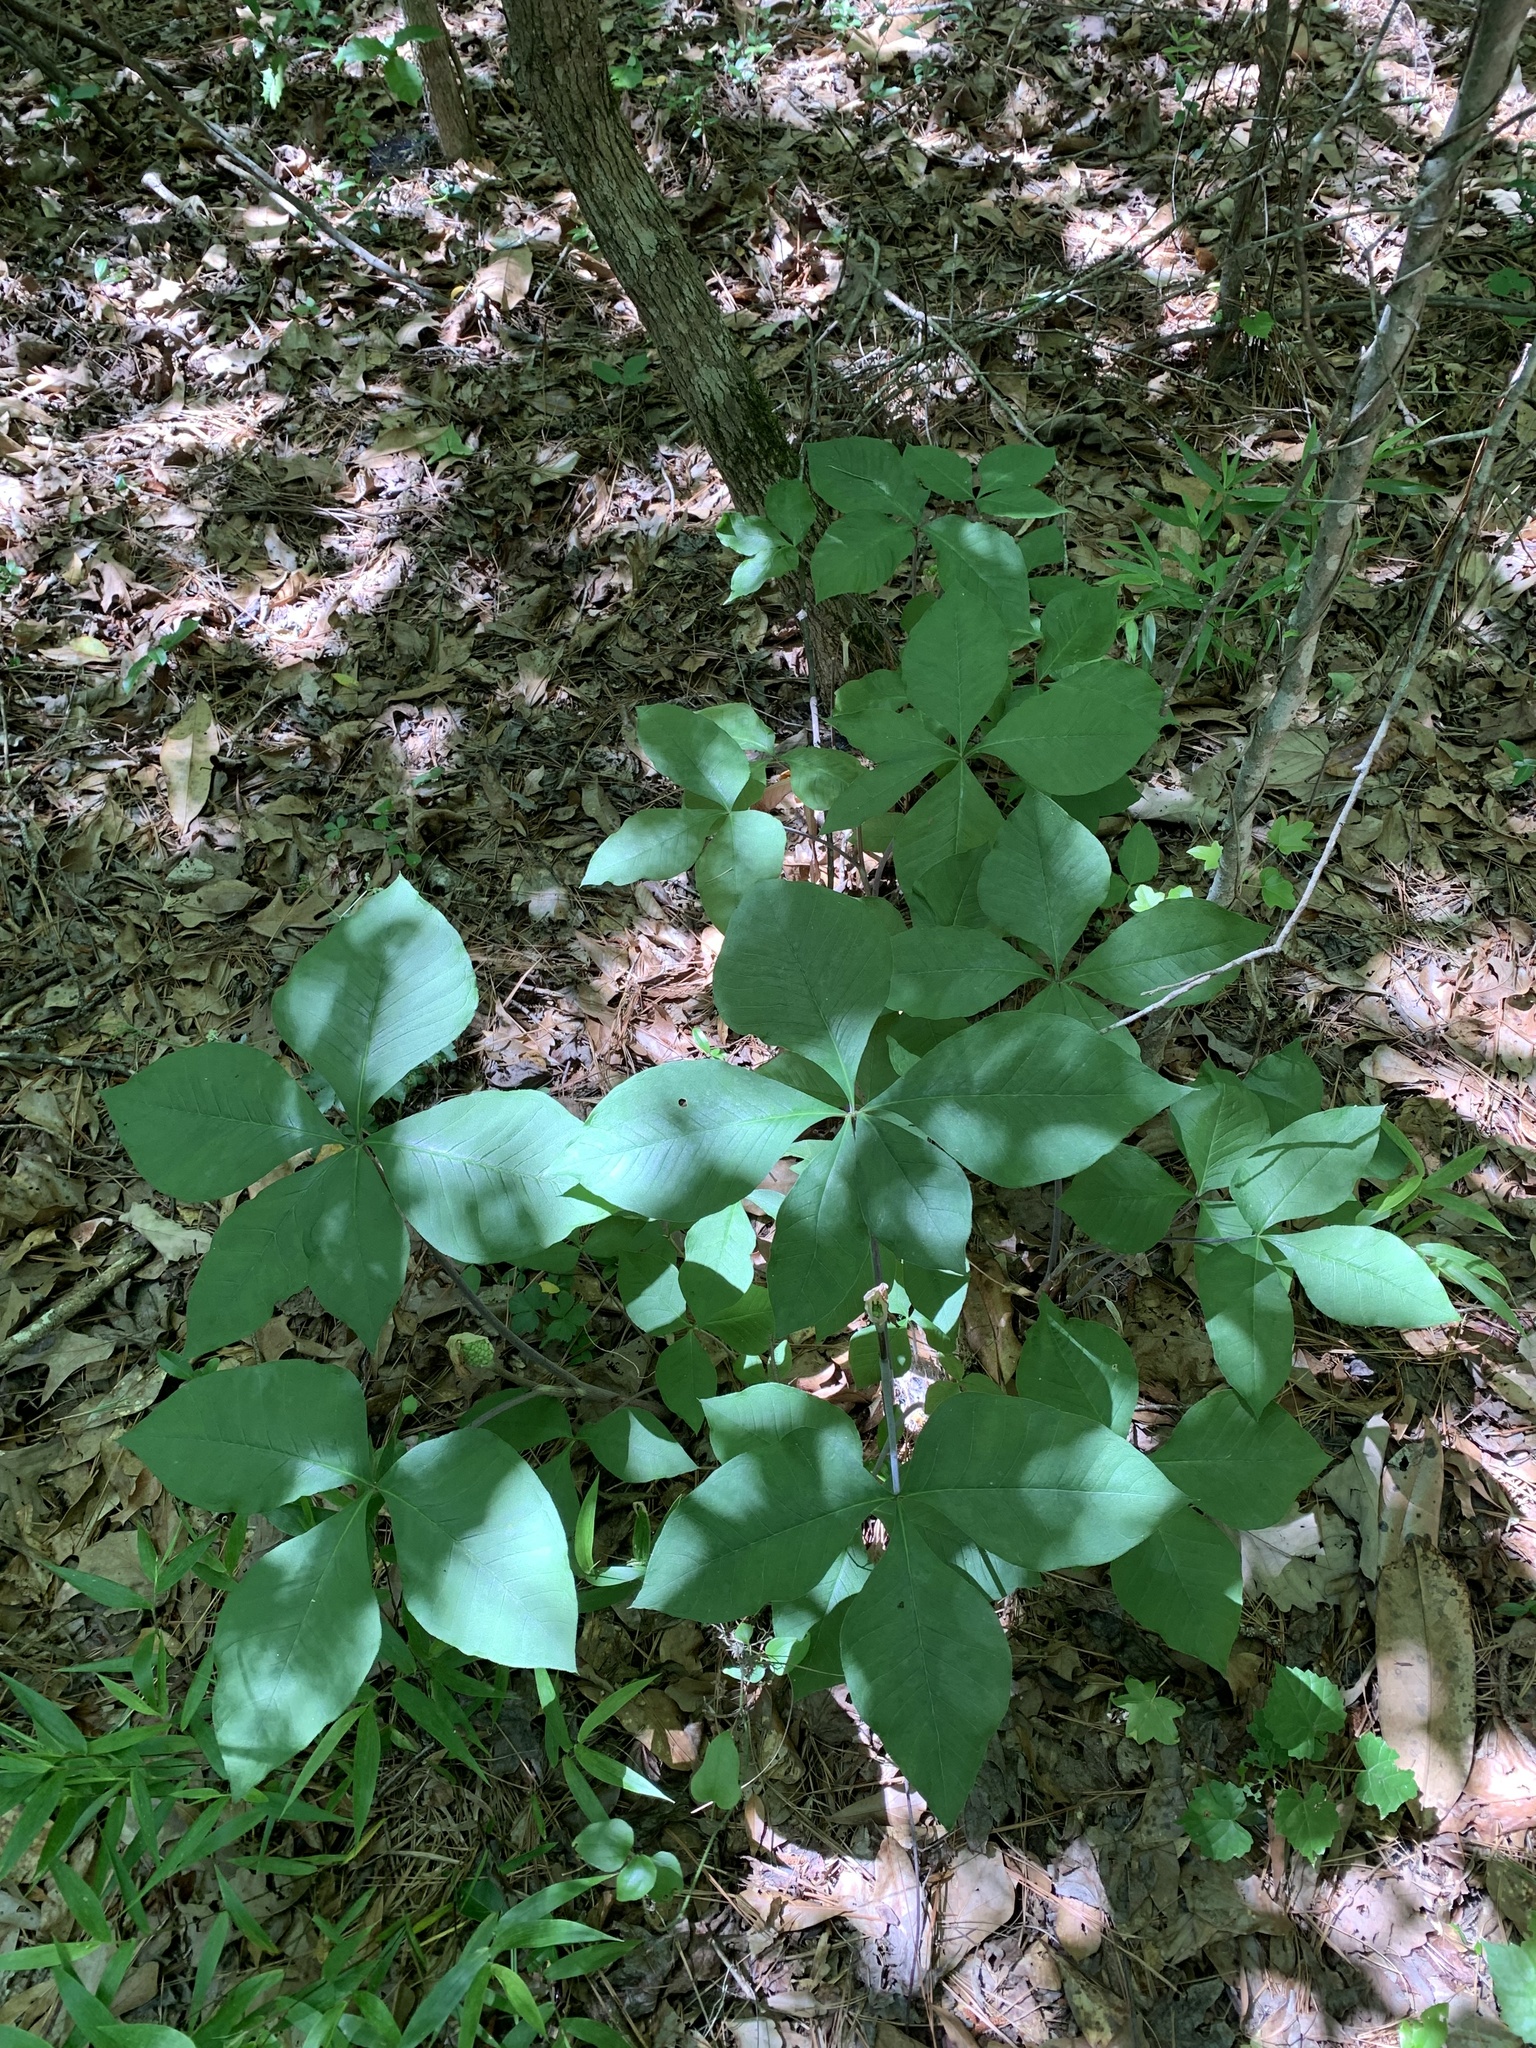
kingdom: Plantae
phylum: Tracheophyta
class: Liliopsida
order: Alismatales
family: Araceae
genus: Arisaema
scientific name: Arisaema quinatum
